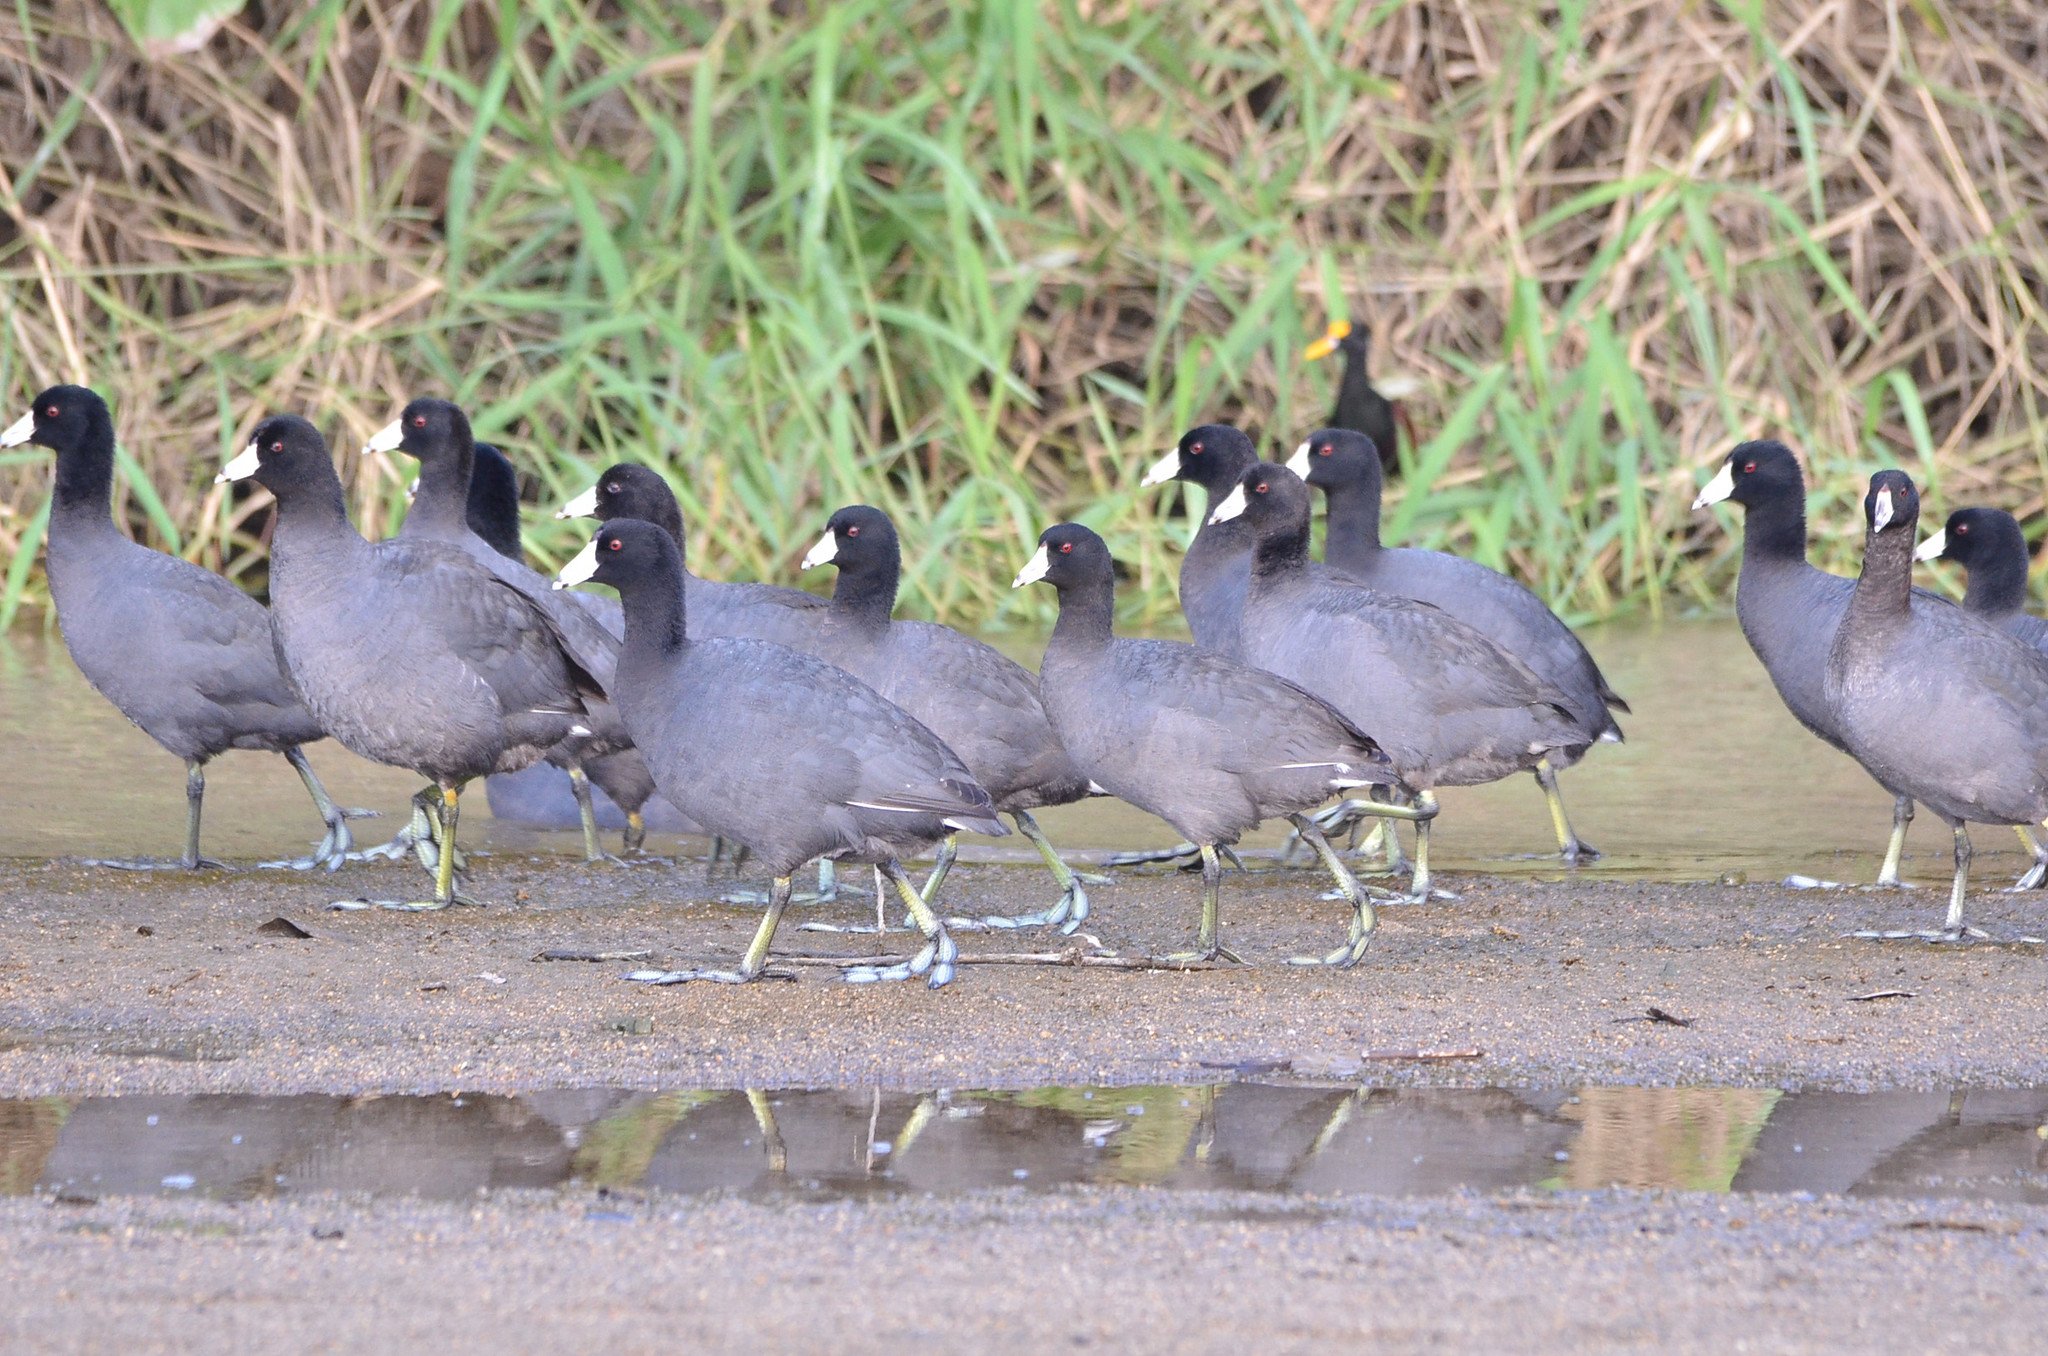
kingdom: Animalia
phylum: Chordata
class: Aves
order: Gruiformes
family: Rallidae
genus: Fulica
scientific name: Fulica americana
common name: American coot
